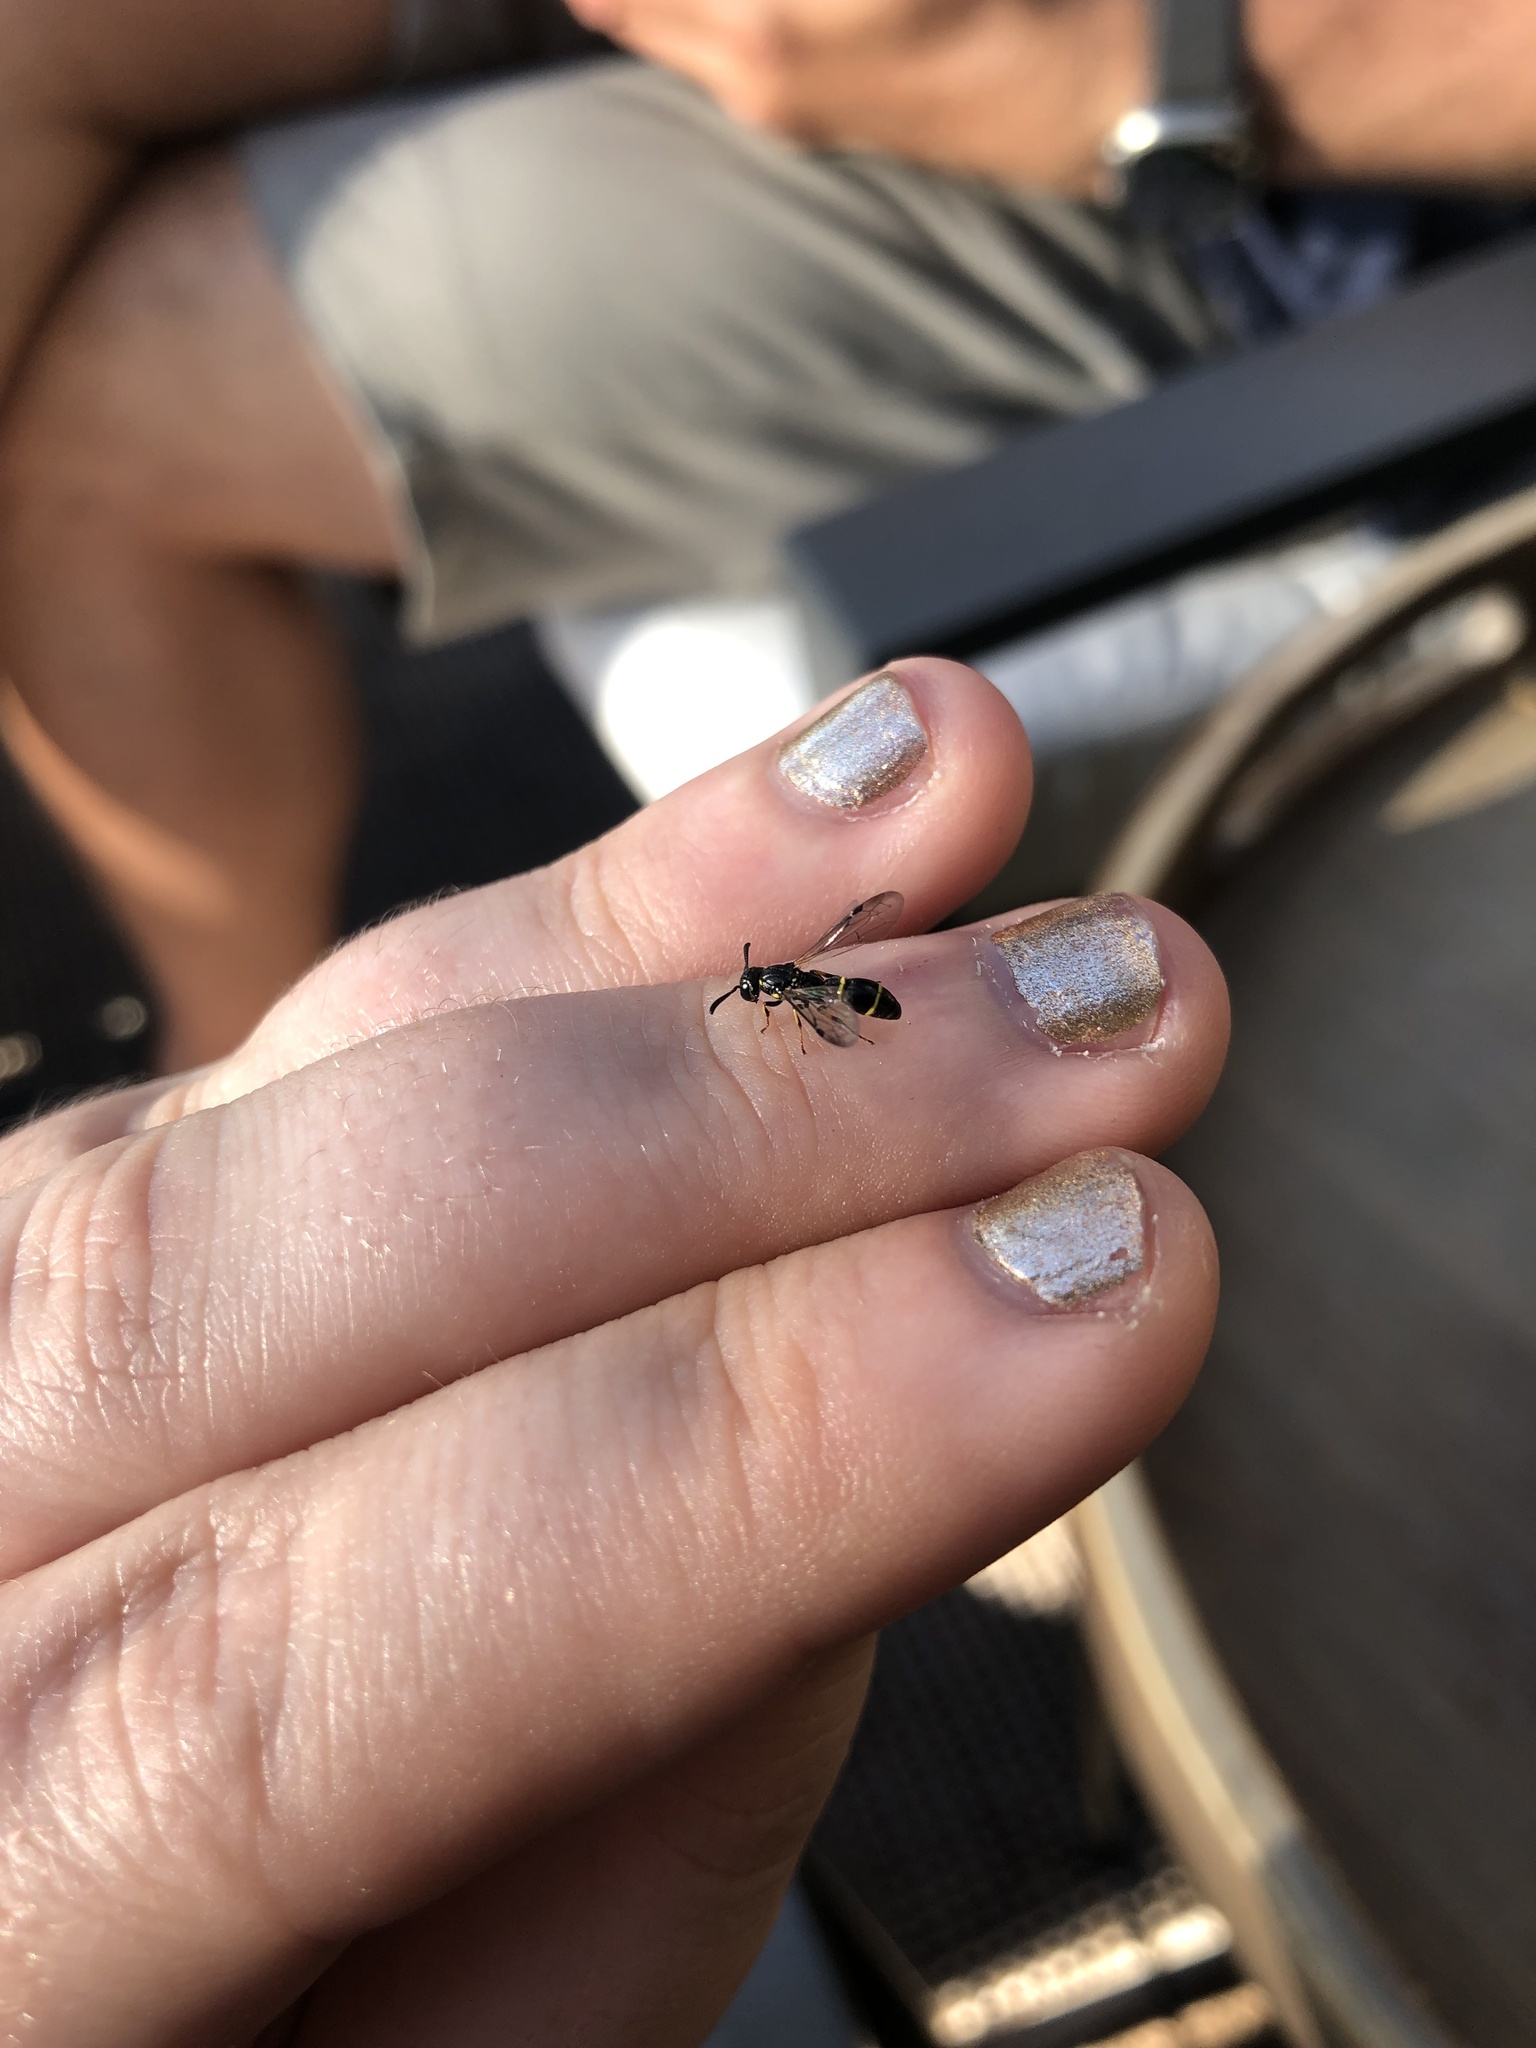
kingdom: Animalia
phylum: Arthropoda
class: Insecta
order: Hymenoptera
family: Eumenidae
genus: Symmorphus
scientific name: Symmorphus
